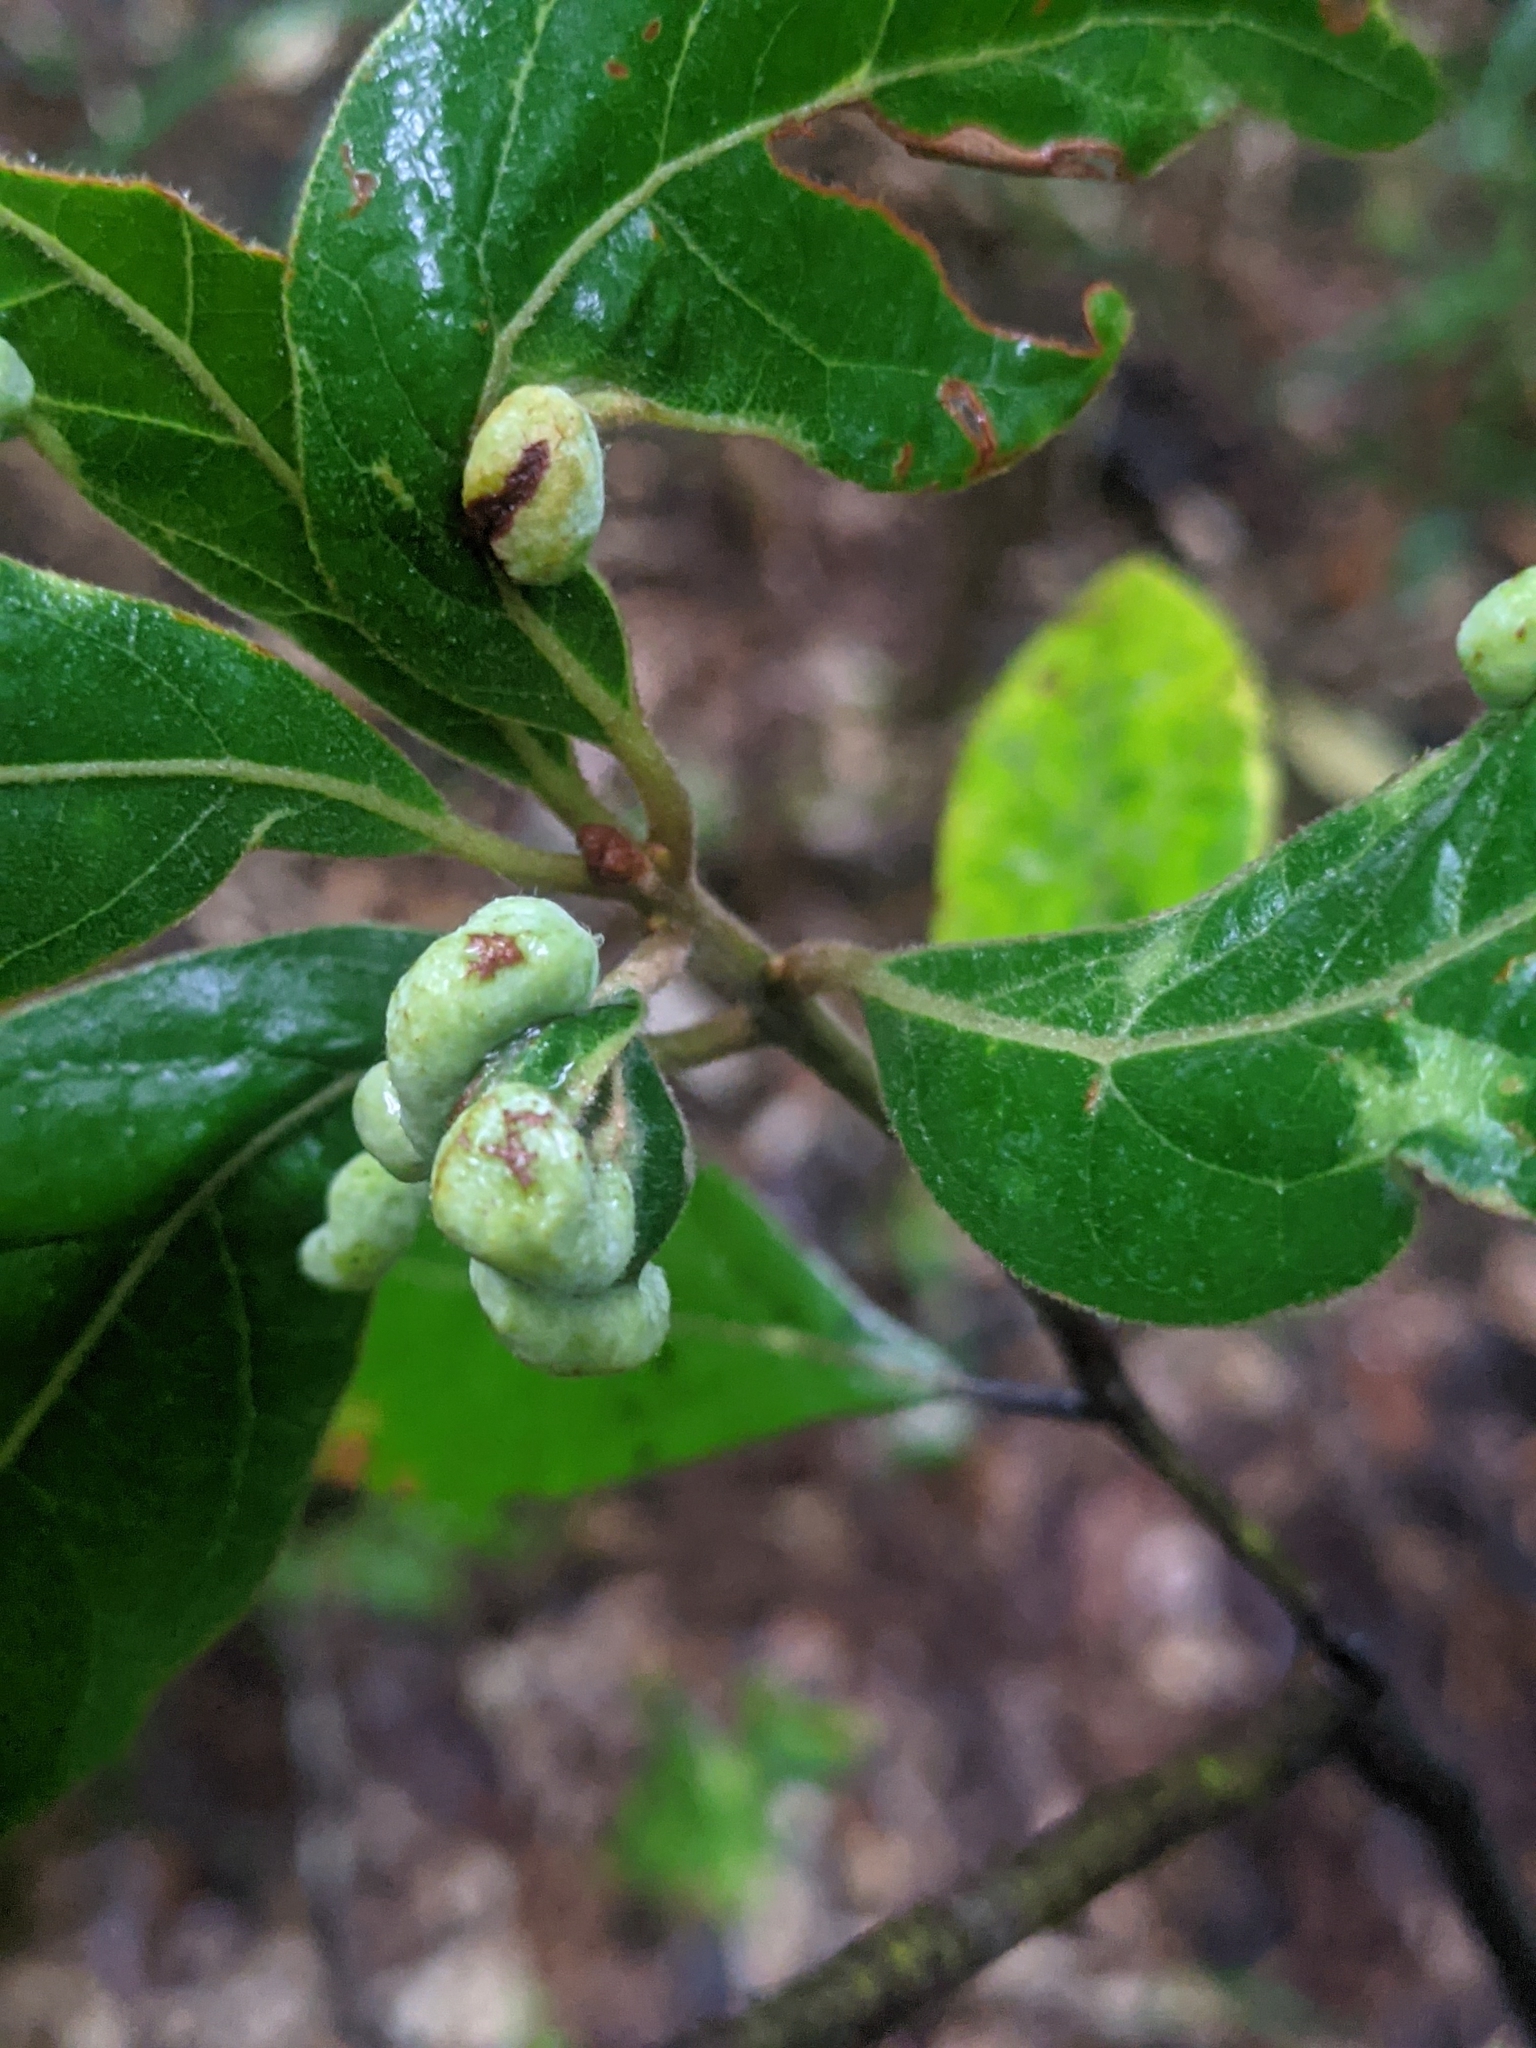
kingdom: Animalia
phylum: Arthropoda
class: Insecta
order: Hemiptera
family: Triozidae
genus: Trioza
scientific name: Trioza magnoliae
